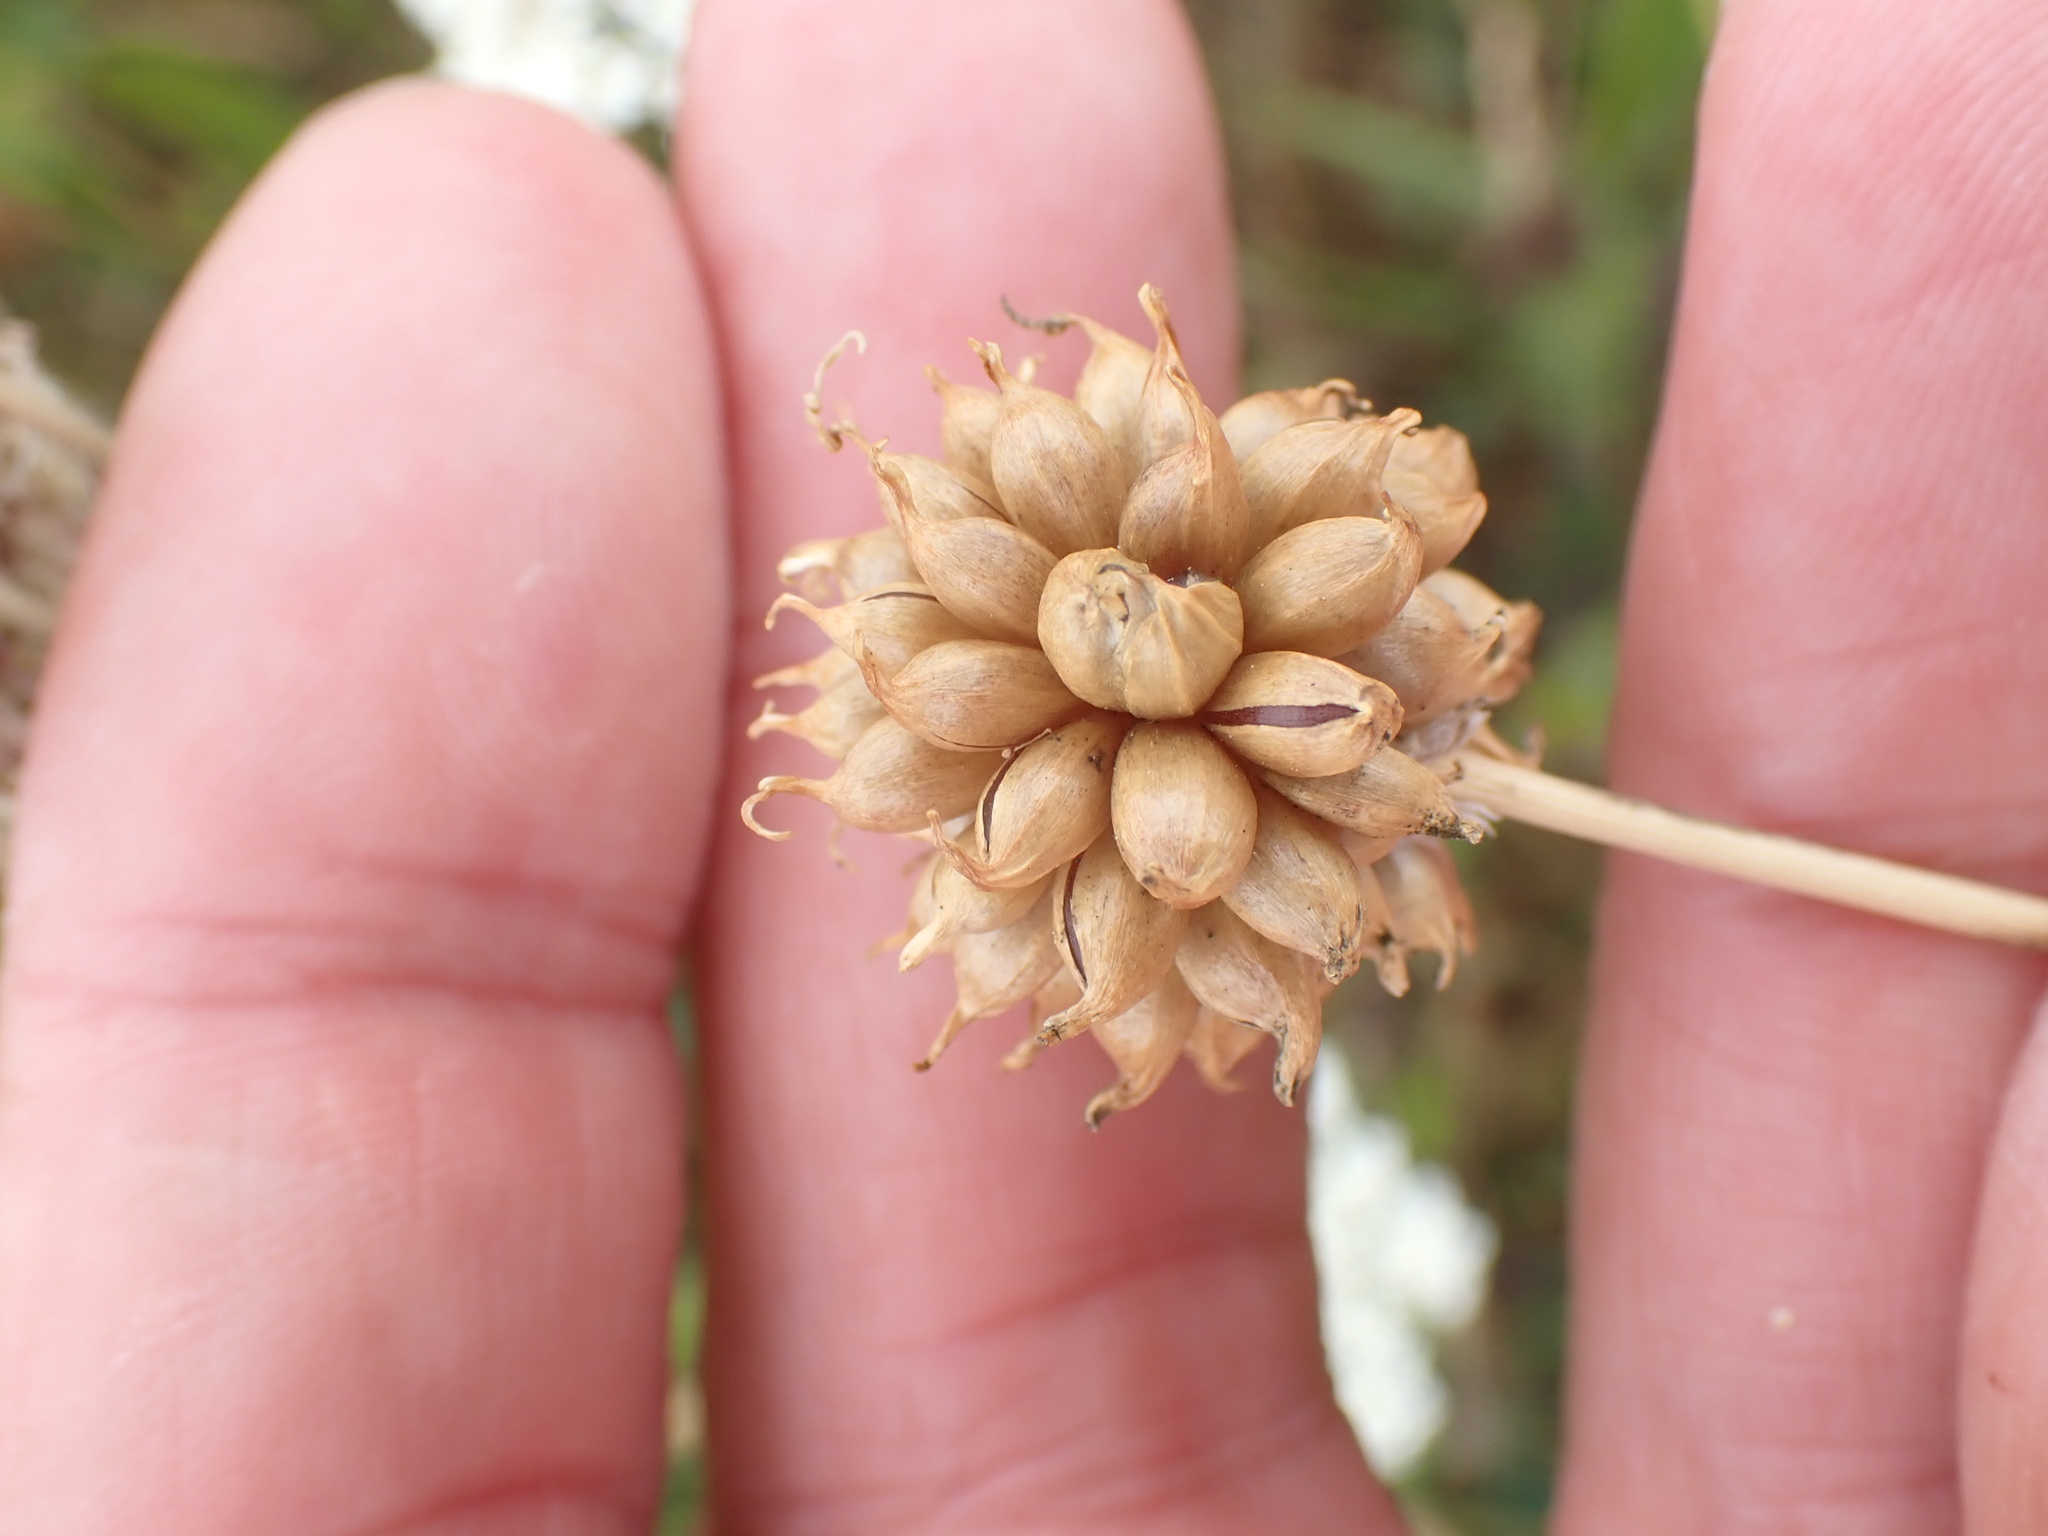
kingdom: Plantae
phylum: Tracheophyta
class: Liliopsida
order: Asparagales
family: Amaryllidaceae
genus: Allium
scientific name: Allium vineale
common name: Crow garlic
